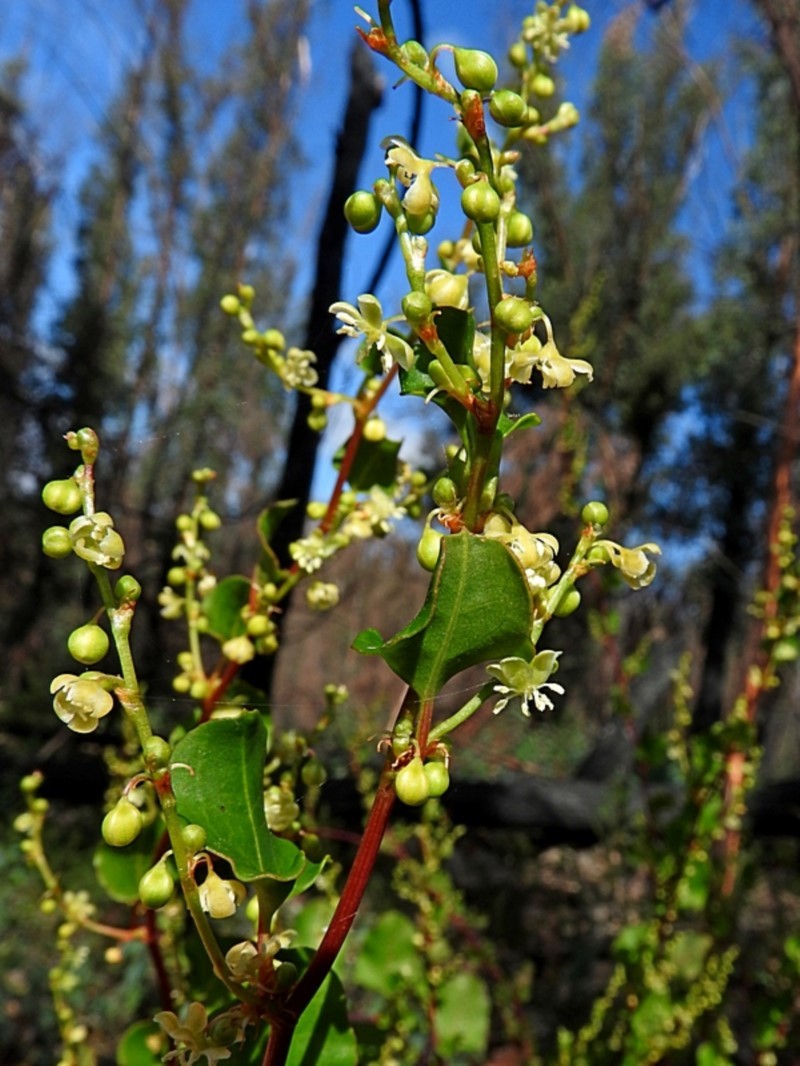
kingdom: Plantae
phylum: Tracheophyta
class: Magnoliopsida
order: Caryophyllales
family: Polygonaceae
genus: Muehlenbeckia
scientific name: Muehlenbeckia rhyticarya
